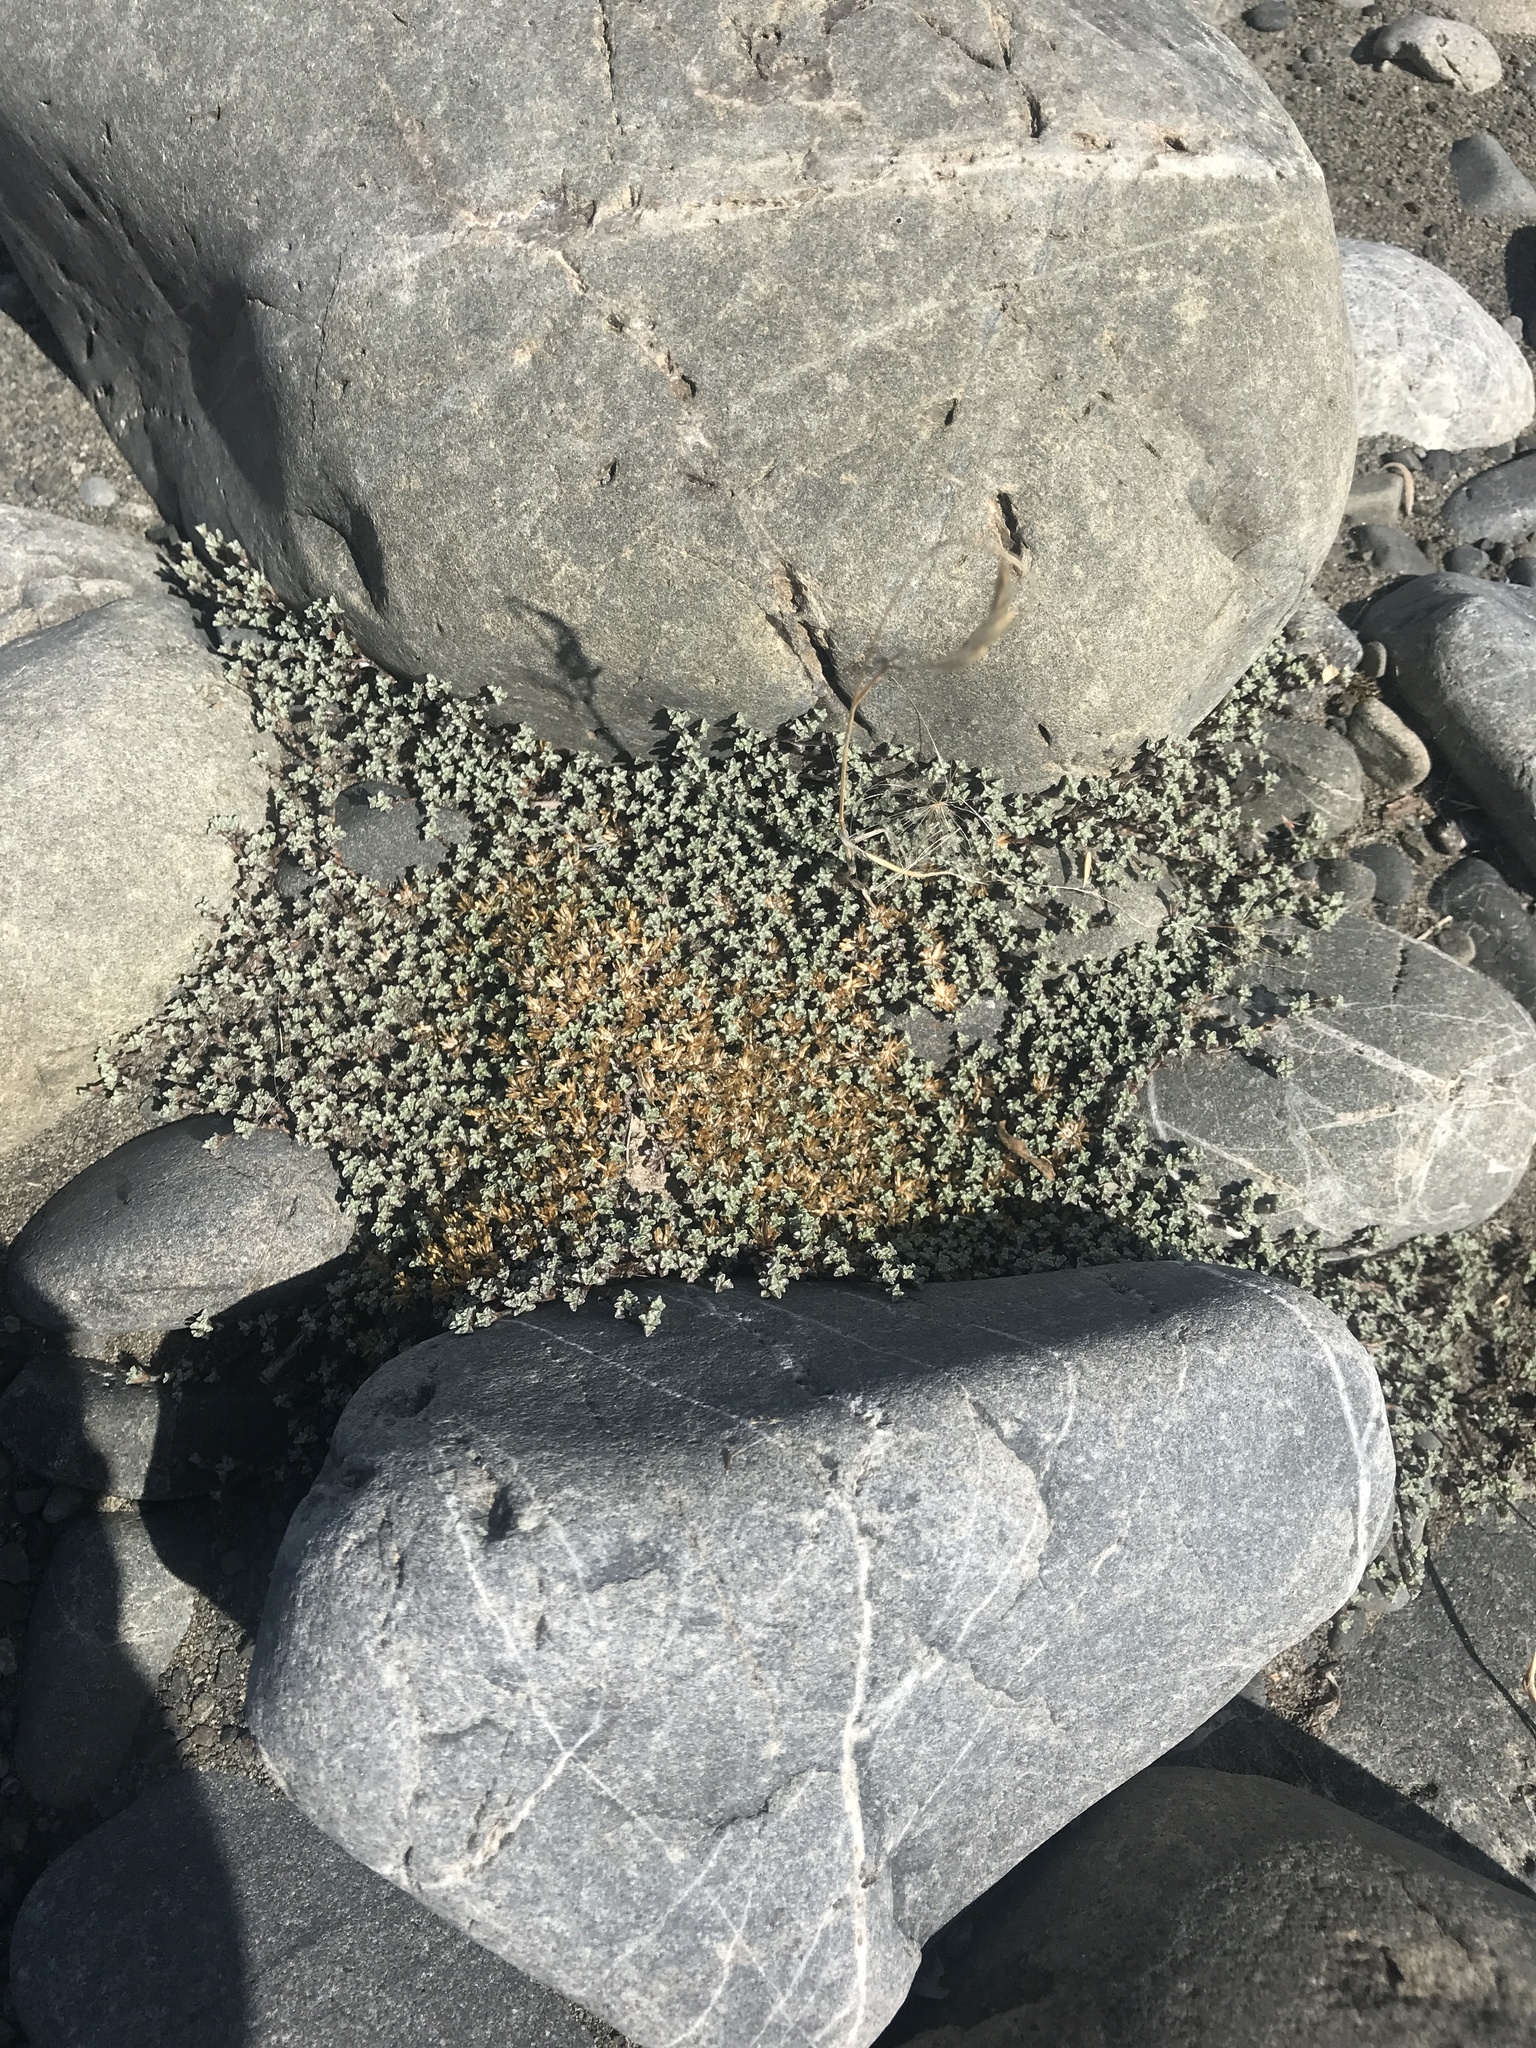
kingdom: Plantae
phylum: Tracheophyta
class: Magnoliopsida
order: Asterales
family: Asteraceae
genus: Raoulia
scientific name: Raoulia tenuicaulis
